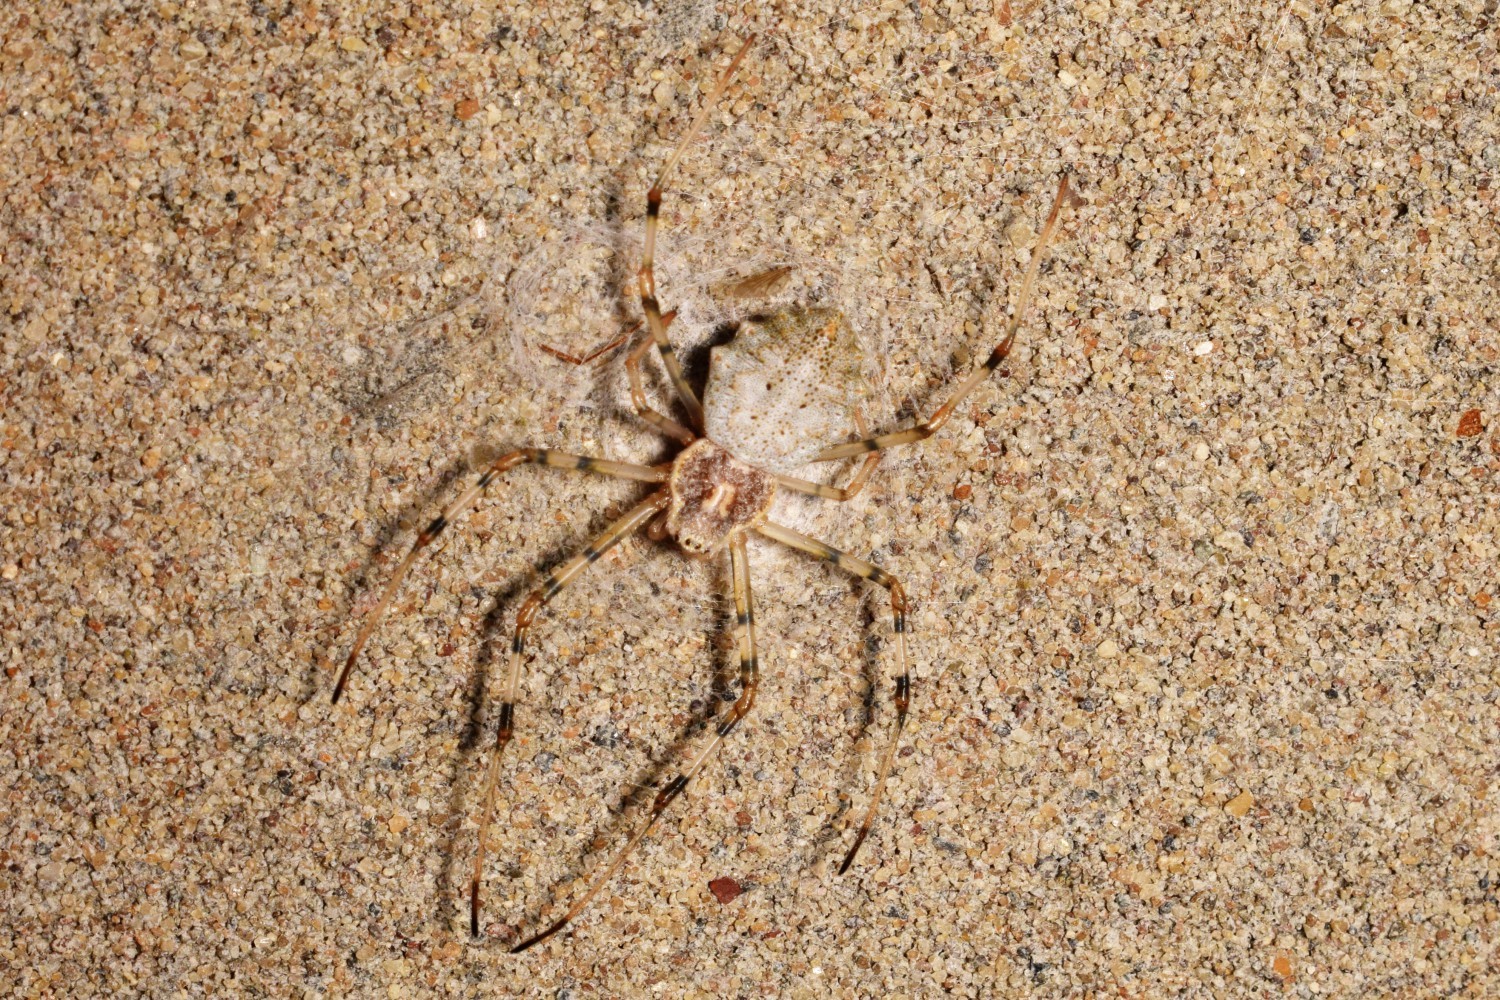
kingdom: Animalia
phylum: Arthropoda
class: Arachnida
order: Araneae
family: Araneidae
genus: Herennia
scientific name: Herennia multipuncta
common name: Spotted coin spider
